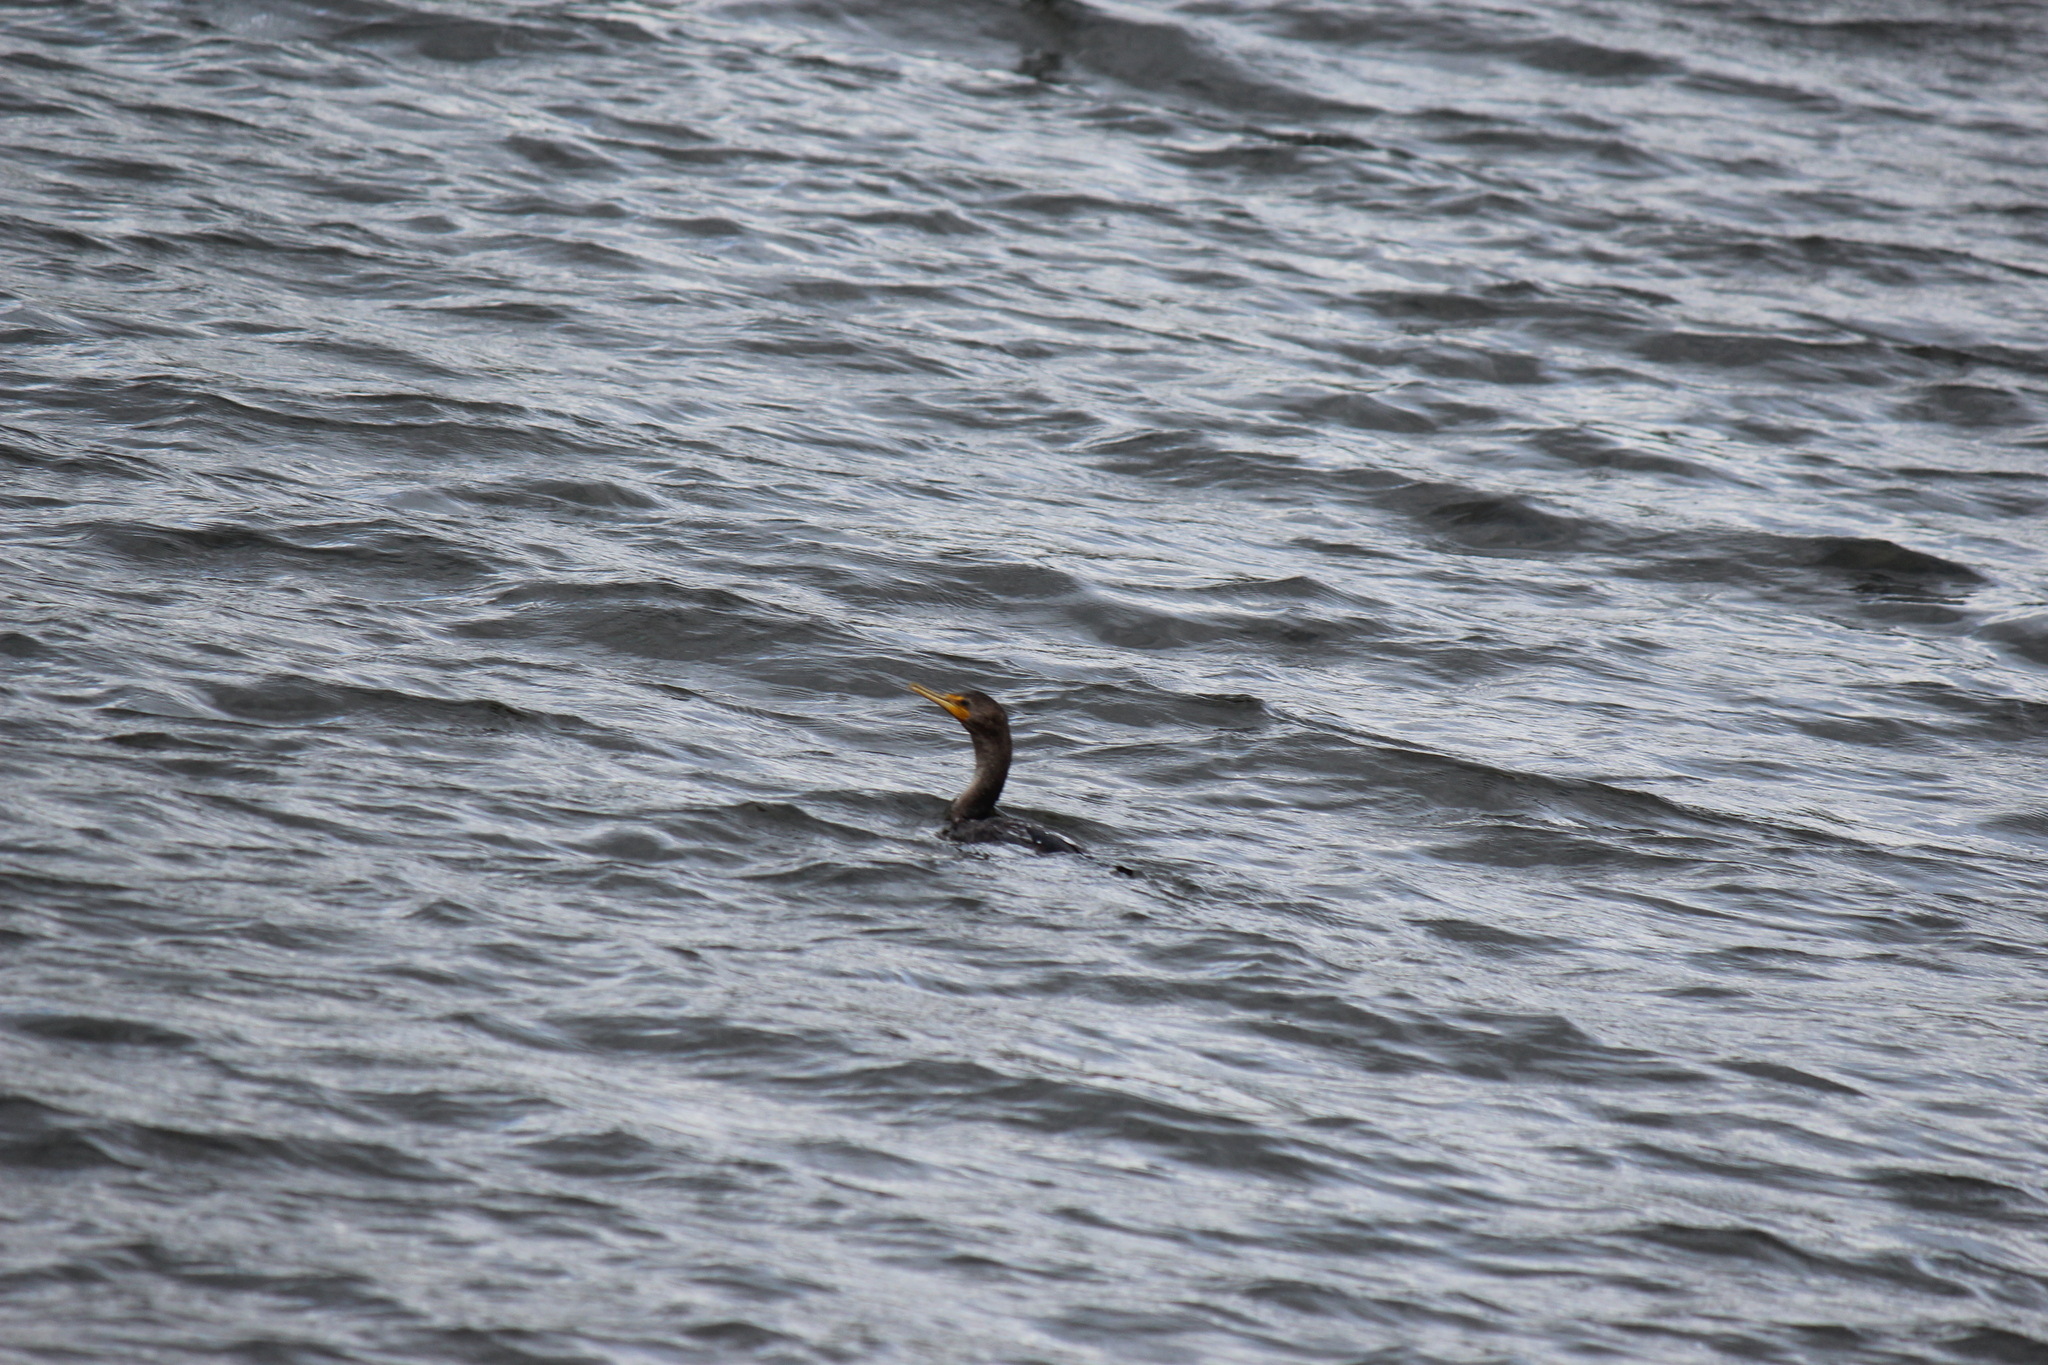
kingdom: Animalia
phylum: Chordata
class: Aves
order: Suliformes
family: Phalacrocoracidae
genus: Phalacrocorax
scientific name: Phalacrocorax auritus
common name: Double-crested cormorant
